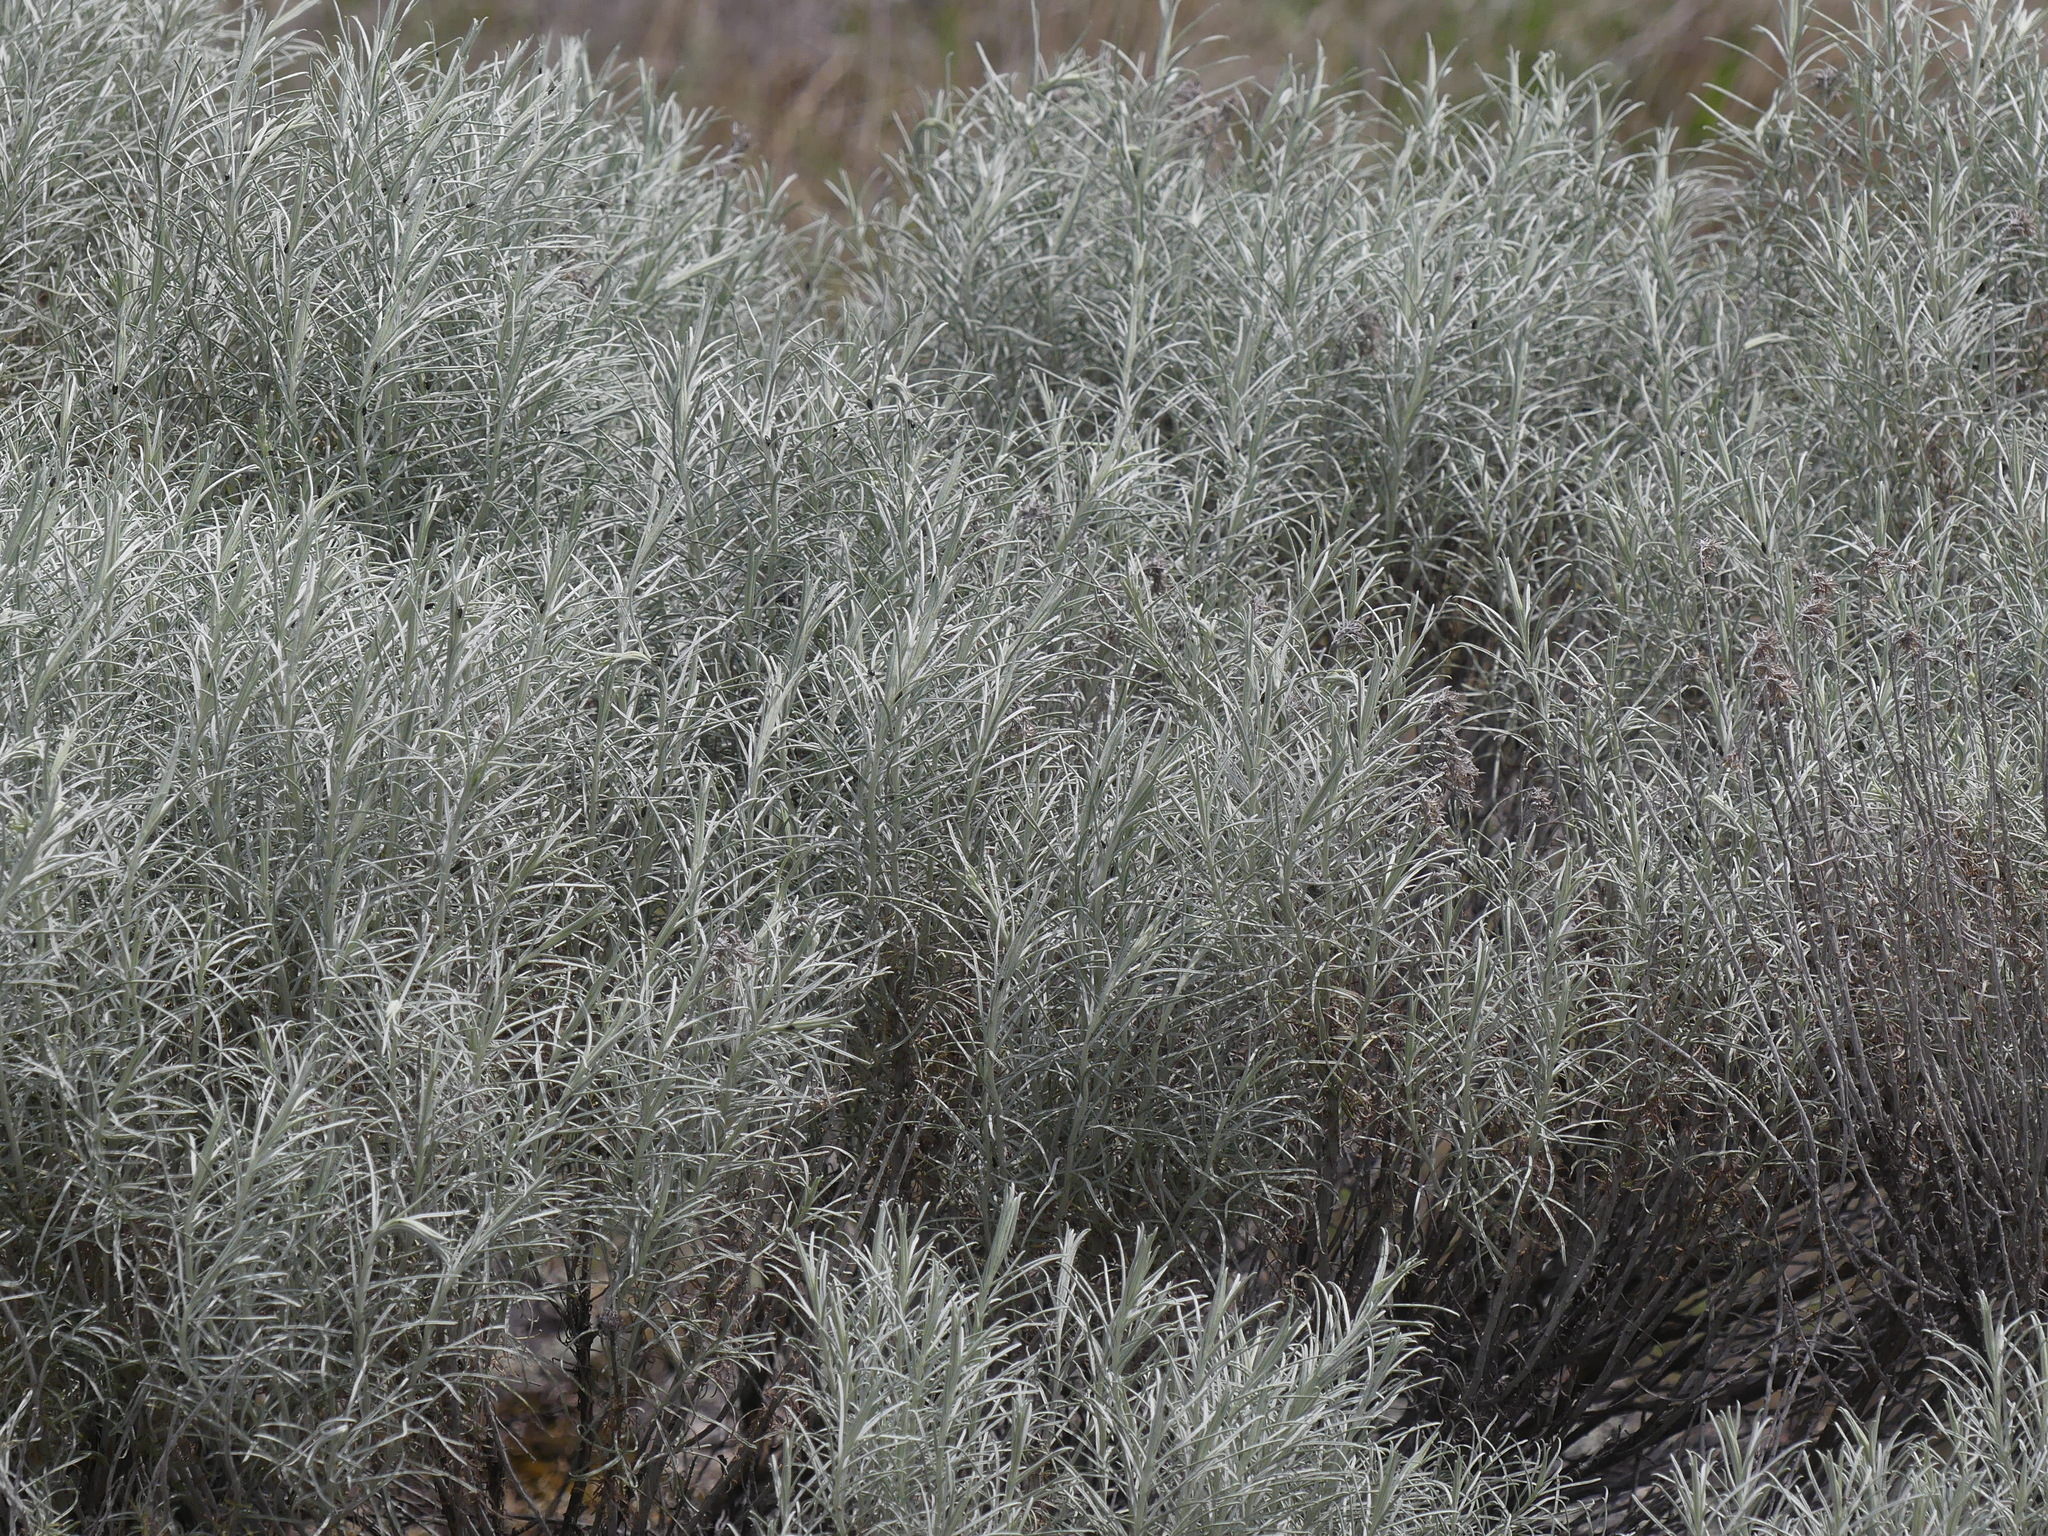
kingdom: Plantae
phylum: Tracheophyta
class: Magnoliopsida
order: Asterales
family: Asteraceae
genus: Ericameria
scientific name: Ericameria nauseosa
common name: Rubber rabbitbrush
